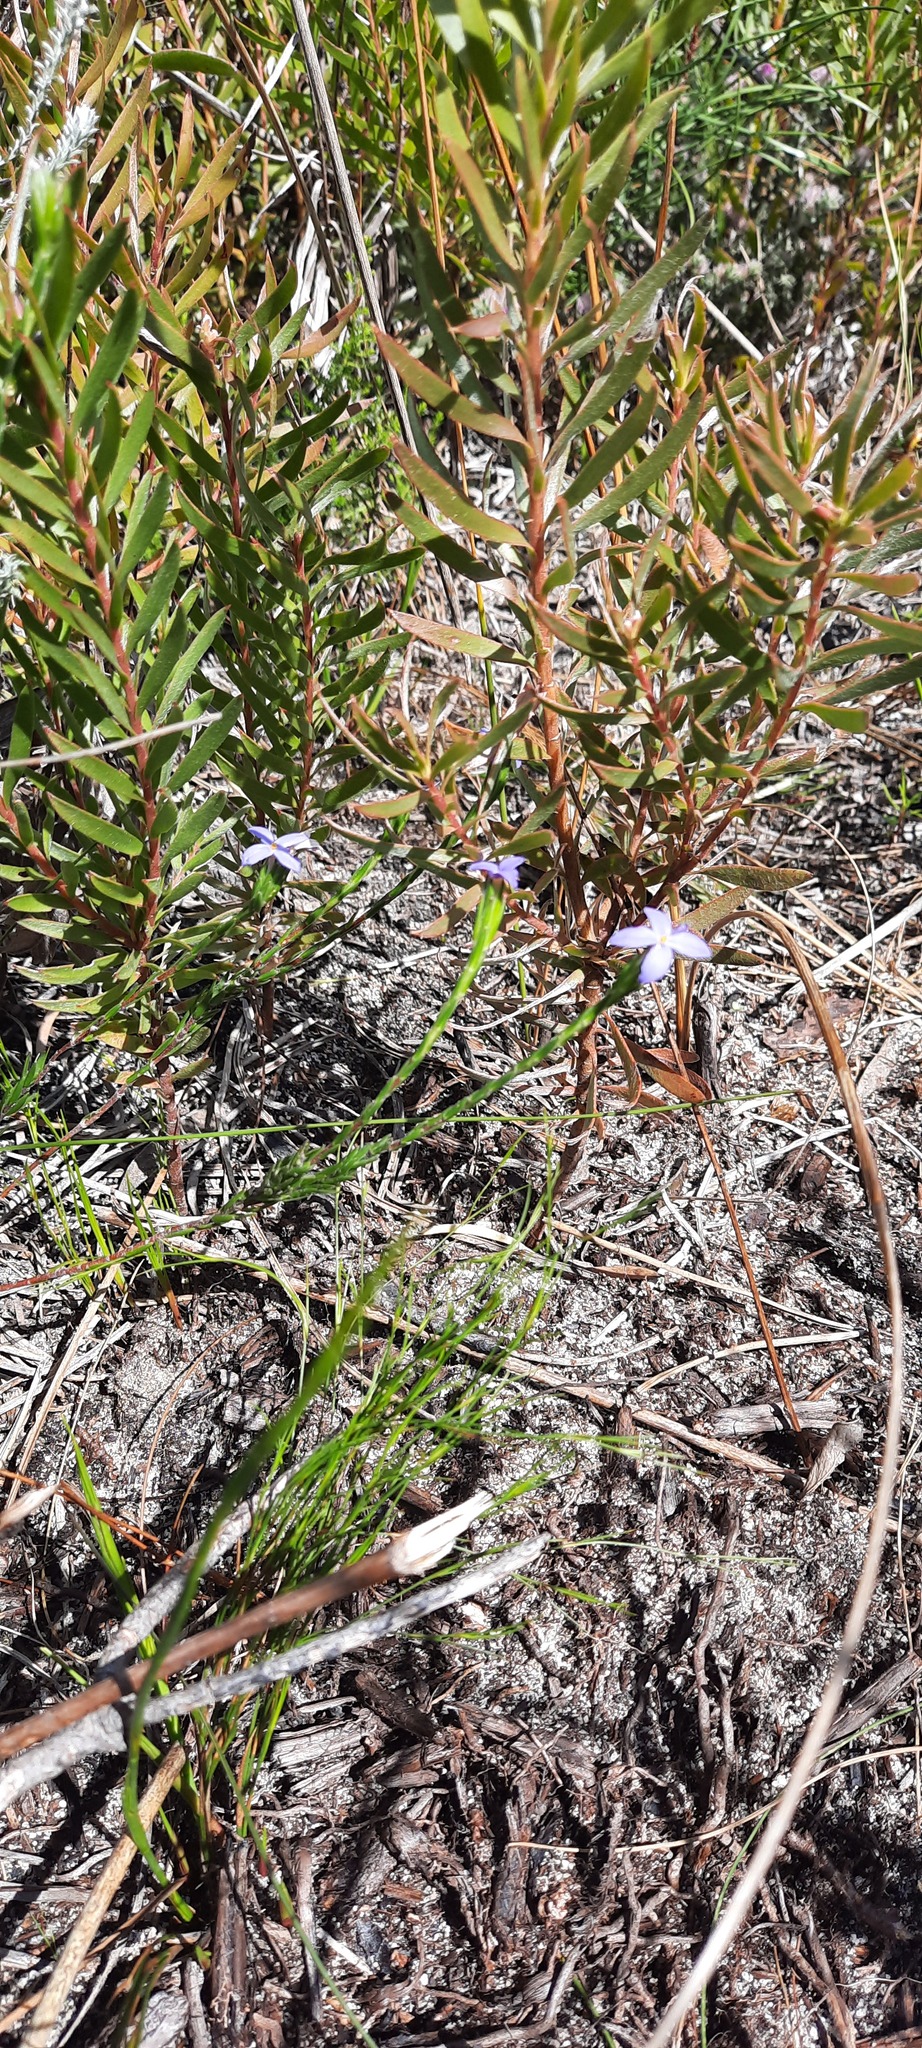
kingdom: Plantae
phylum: Tracheophyta
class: Magnoliopsida
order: Malvales
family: Thymelaeaceae
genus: Gnidia
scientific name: Gnidia penicillata
